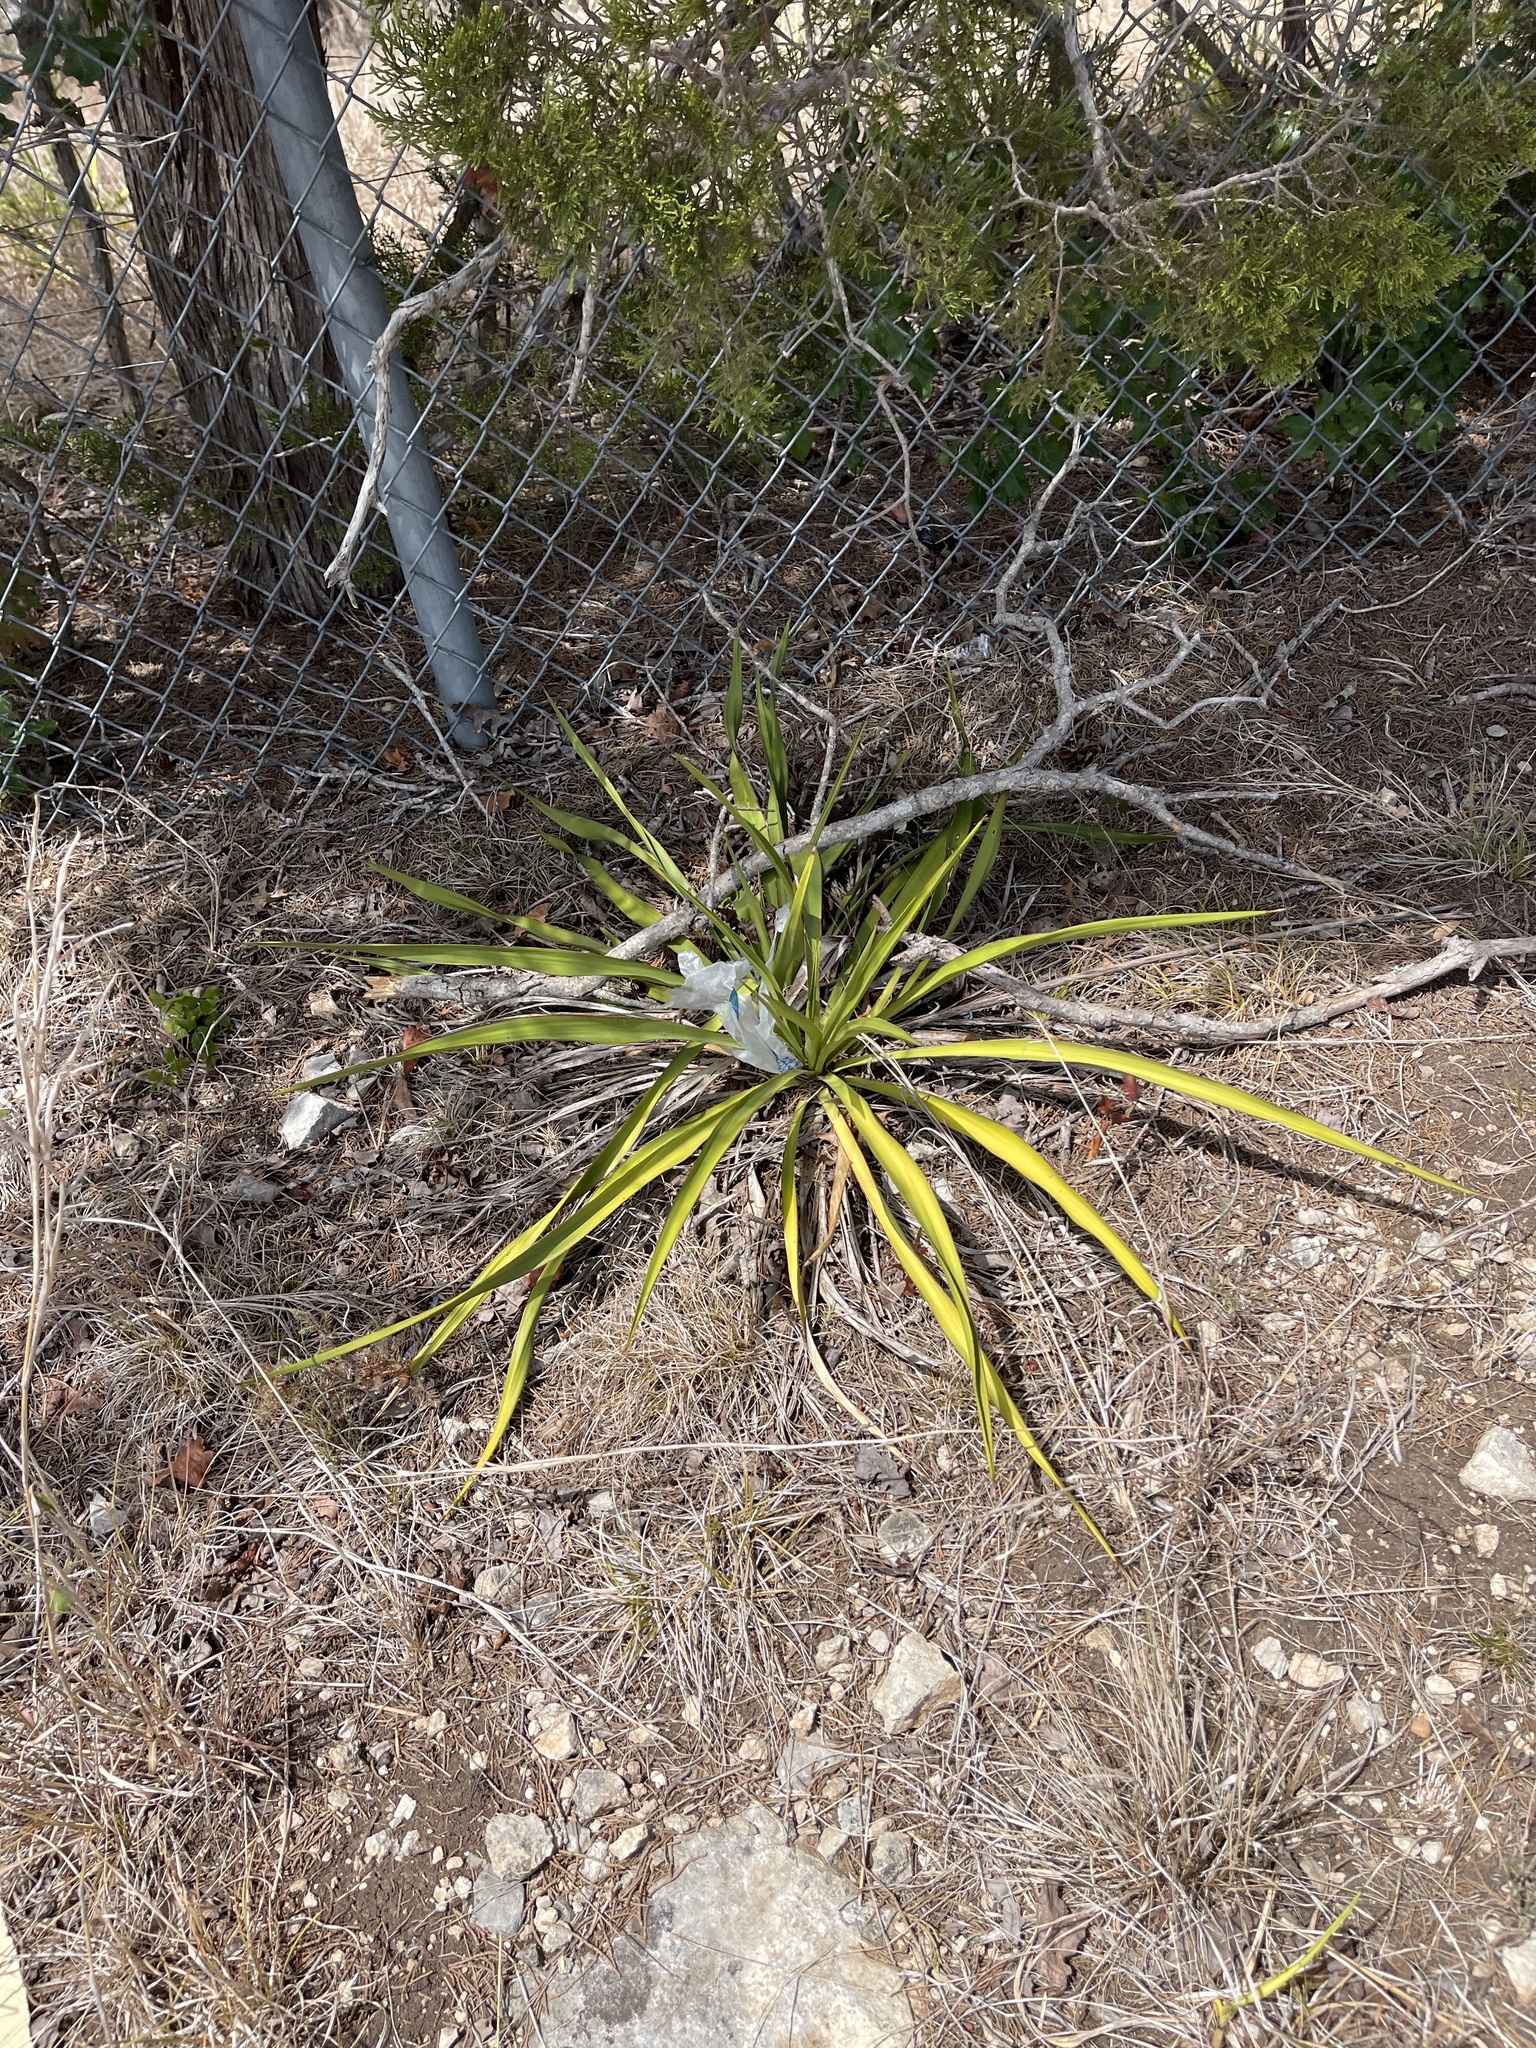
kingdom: Plantae
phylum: Tracheophyta
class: Liliopsida
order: Asparagales
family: Asparagaceae
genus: Yucca
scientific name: Yucca rupicola
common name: Twisted-leaf spanish-dagger
